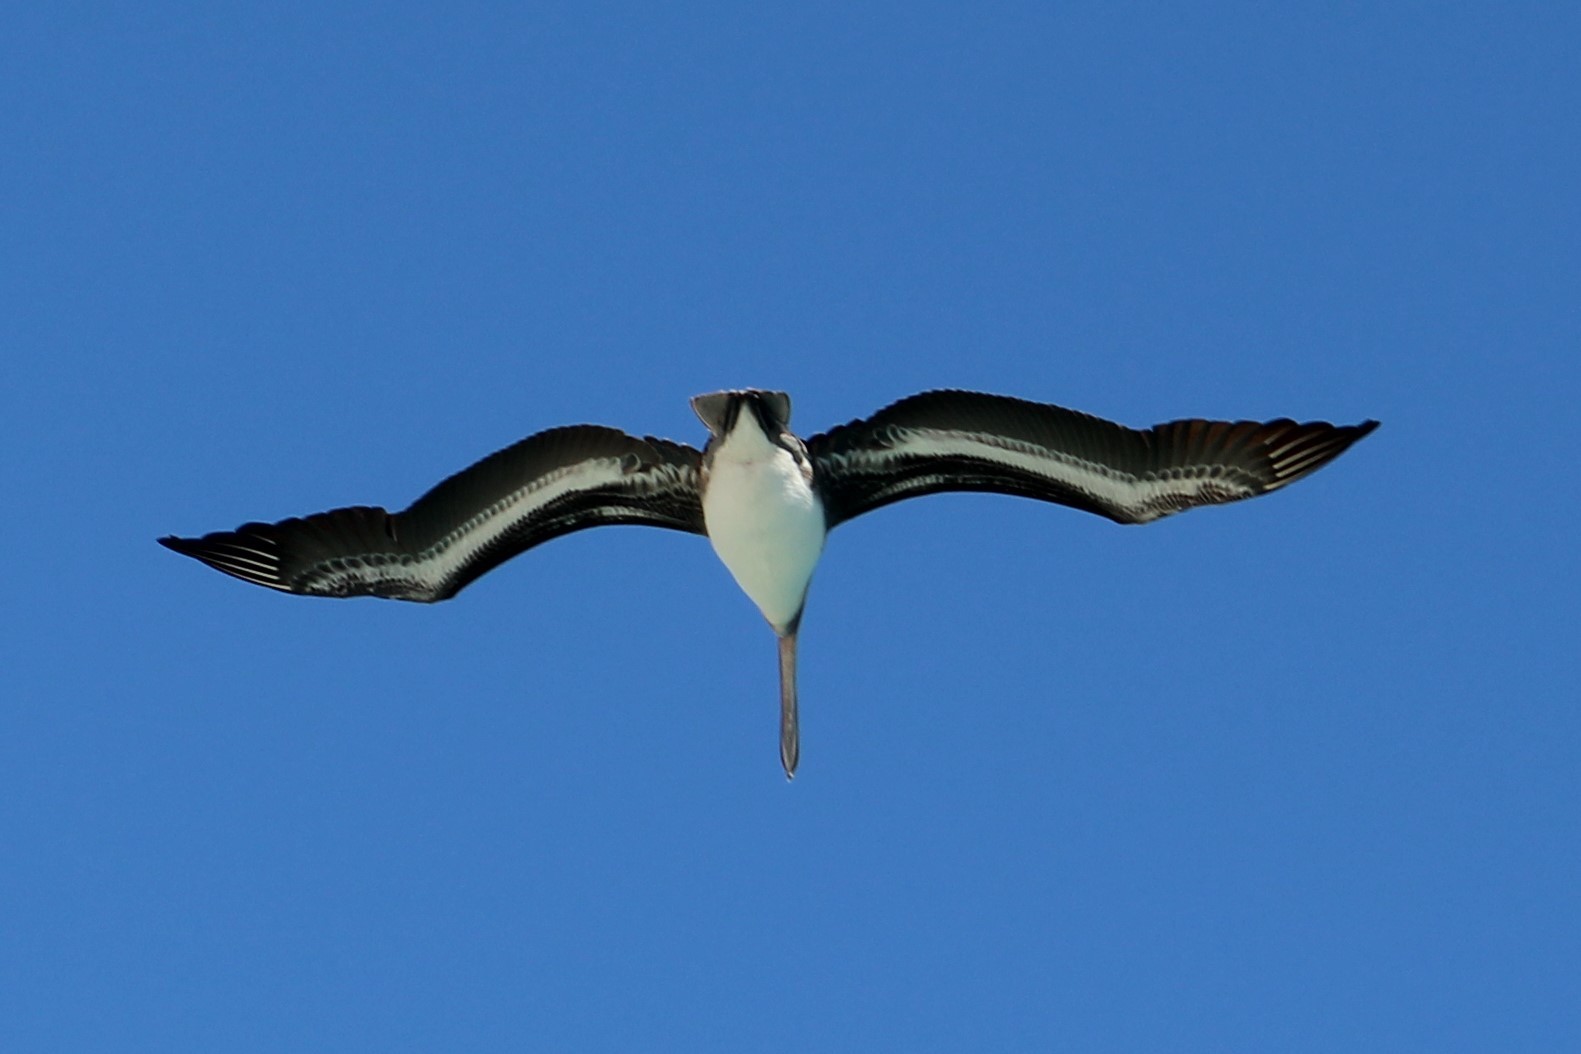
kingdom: Animalia
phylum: Chordata
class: Aves
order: Pelecaniformes
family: Pelecanidae
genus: Pelecanus
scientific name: Pelecanus occidentalis
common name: Brown pelican
